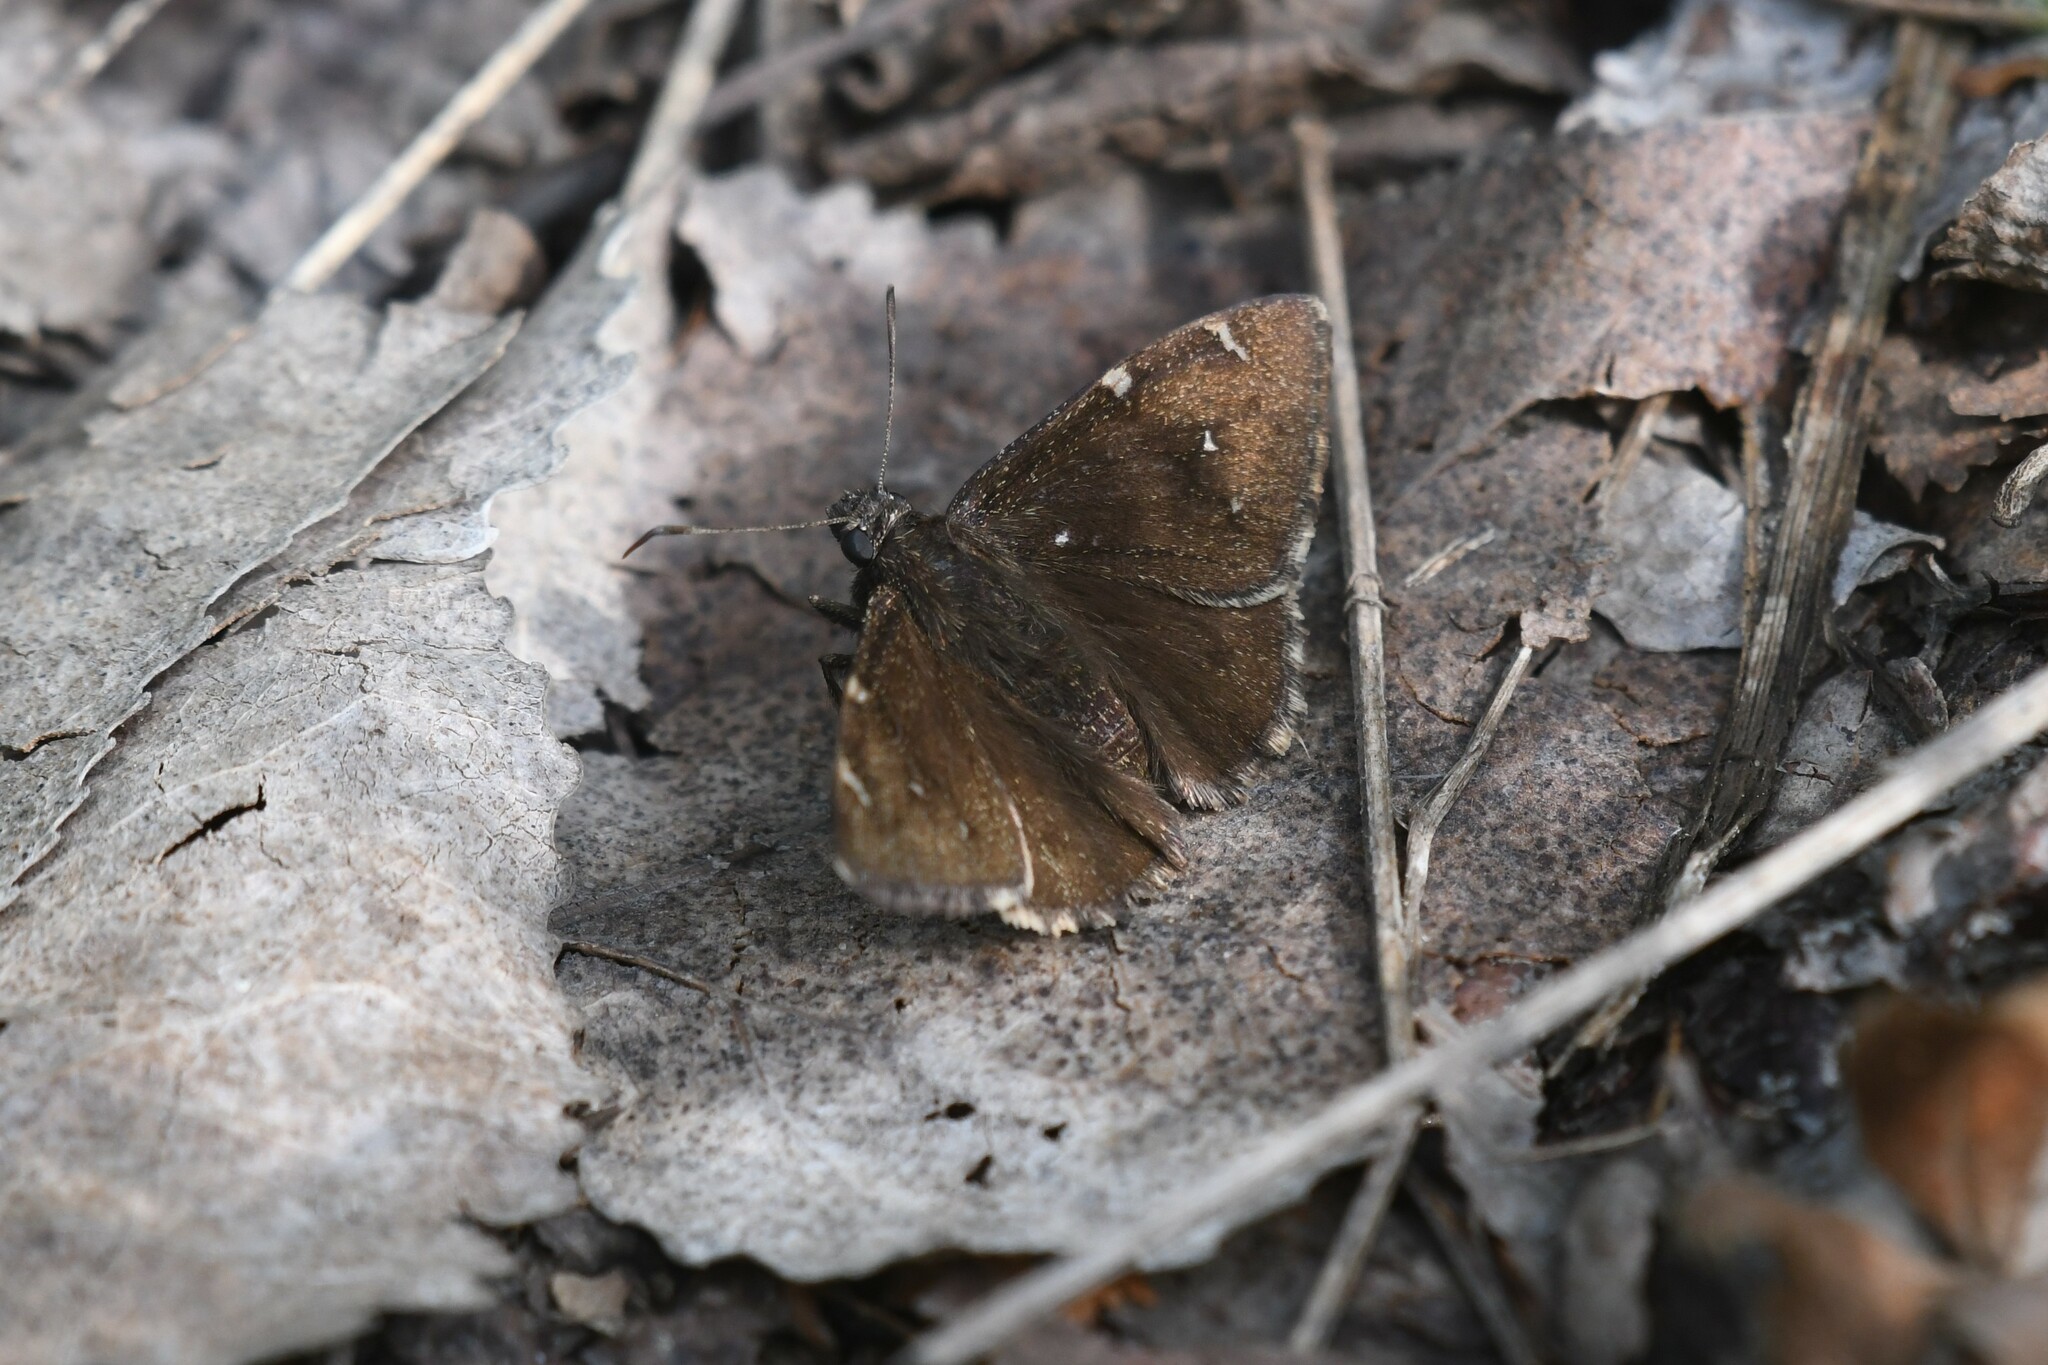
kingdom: Animalia
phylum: Arthropoda
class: Insecta
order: Lepidoptera
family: Hesperiidae
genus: Thorybes
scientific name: Thorybes pylades
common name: Northern cloudywing
